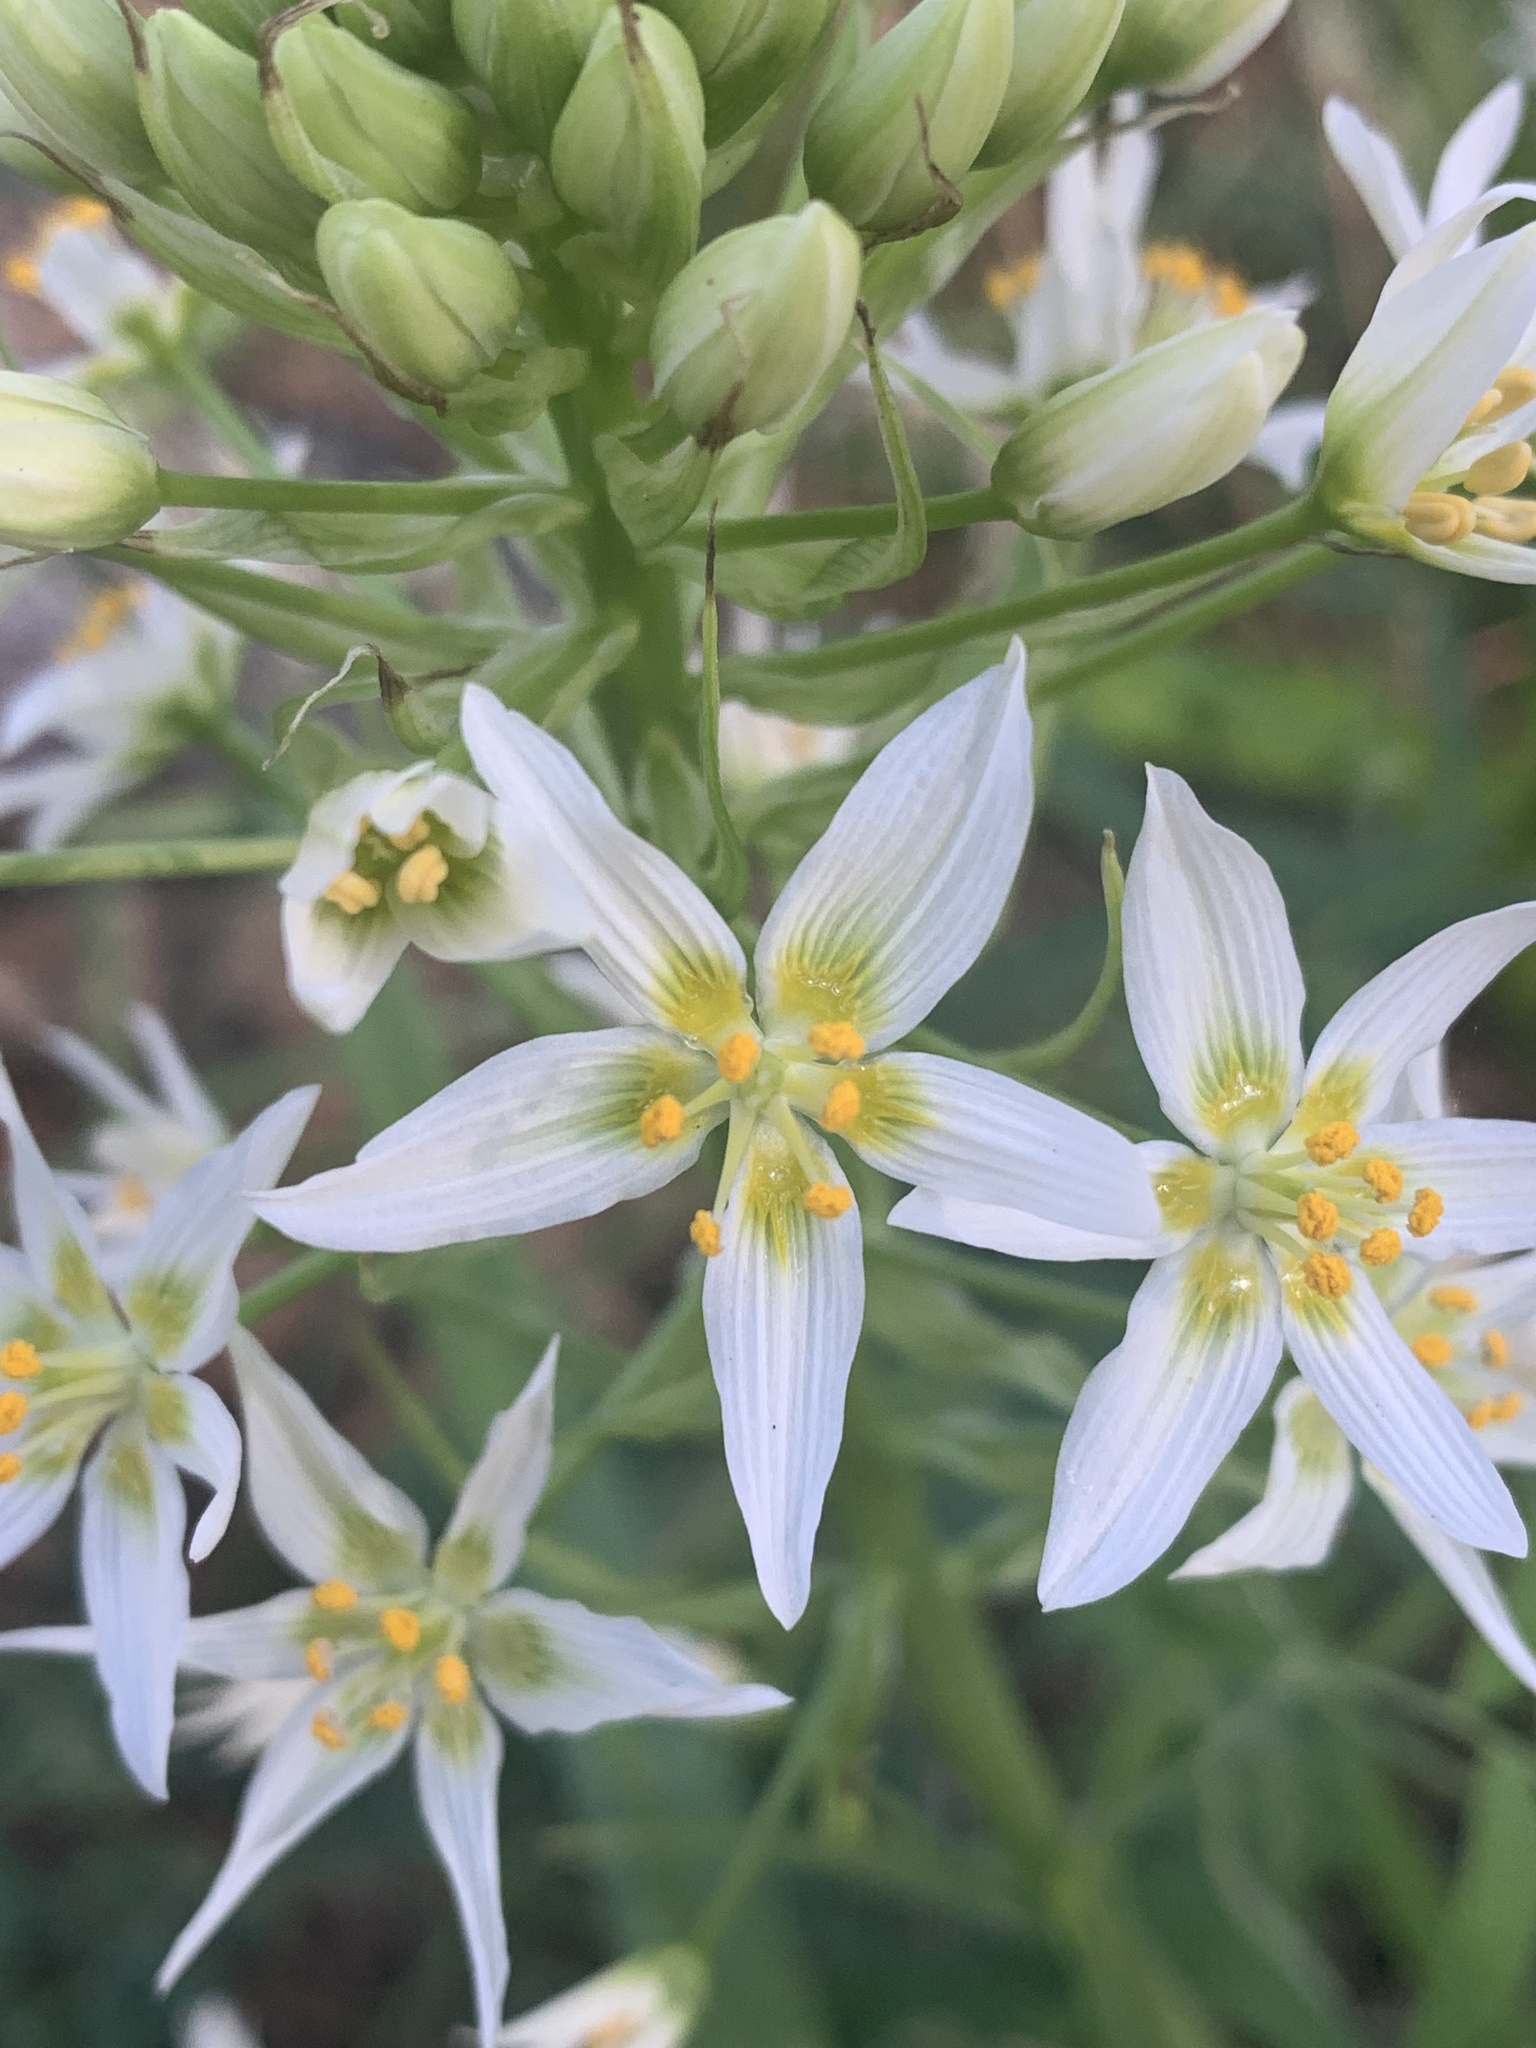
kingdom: Plantae
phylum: Tracheophyta
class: Liliopsida
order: Liliales
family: Melanthiaceae
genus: Toxicoscordion
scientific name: Toxicoscordion fremontii
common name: Fremont's death camas
